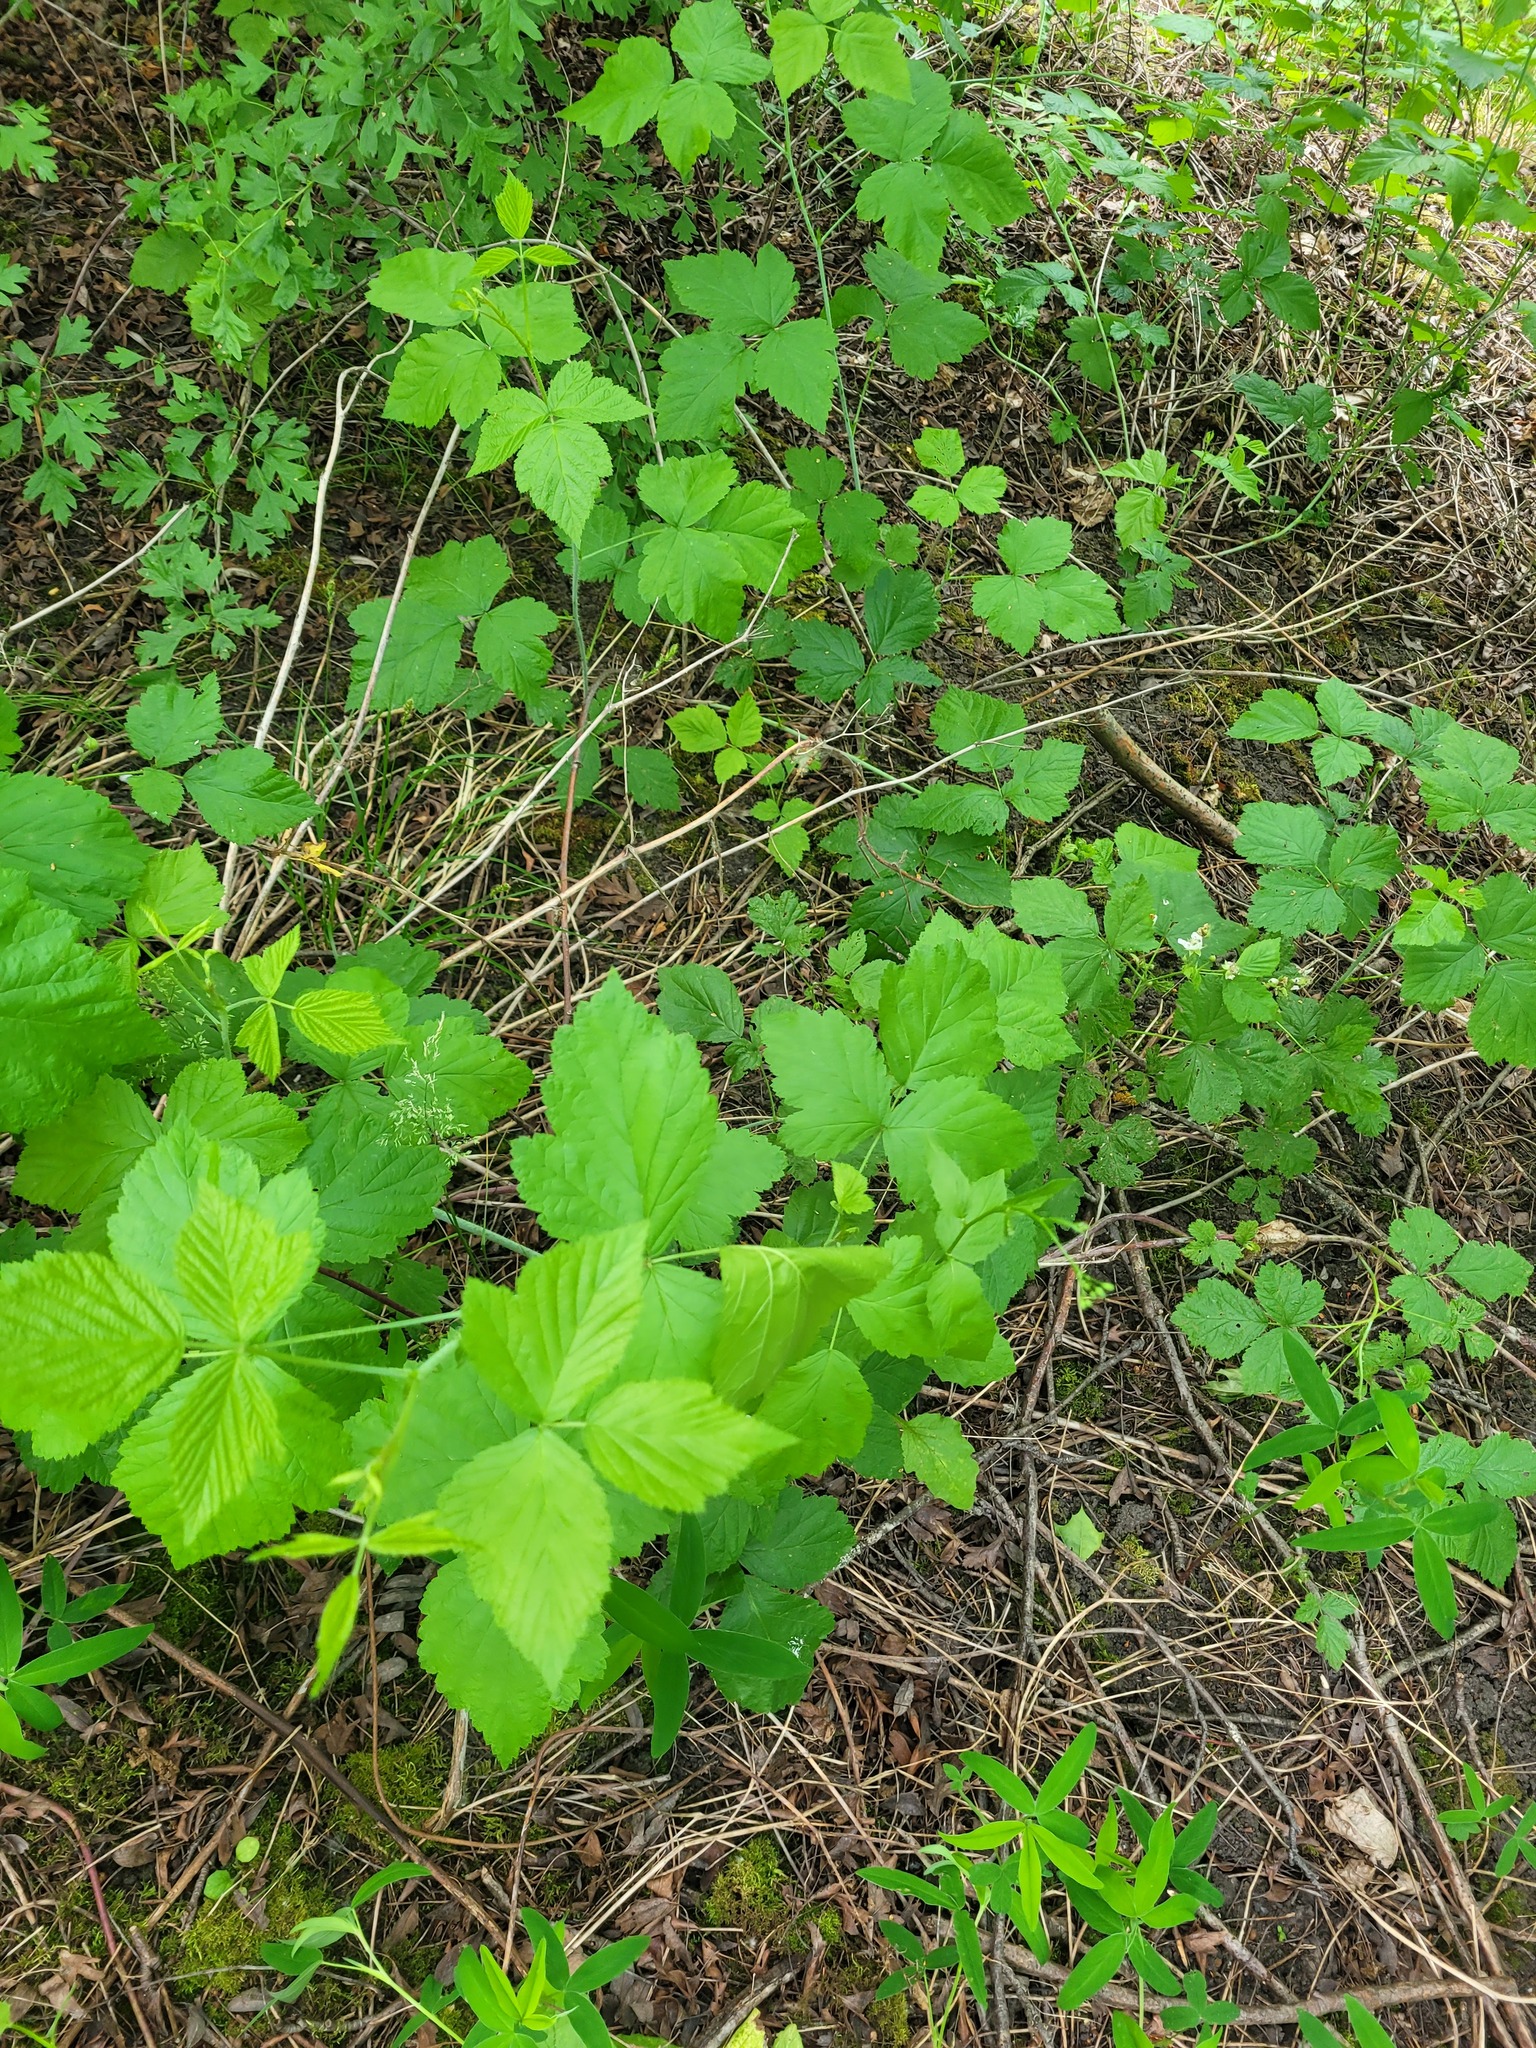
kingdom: Plantae
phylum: Tracheophyta
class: Magnoliopsida
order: Rosales
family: Rosaceae
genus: Rubus
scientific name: Rubus caesius
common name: Dewberry
